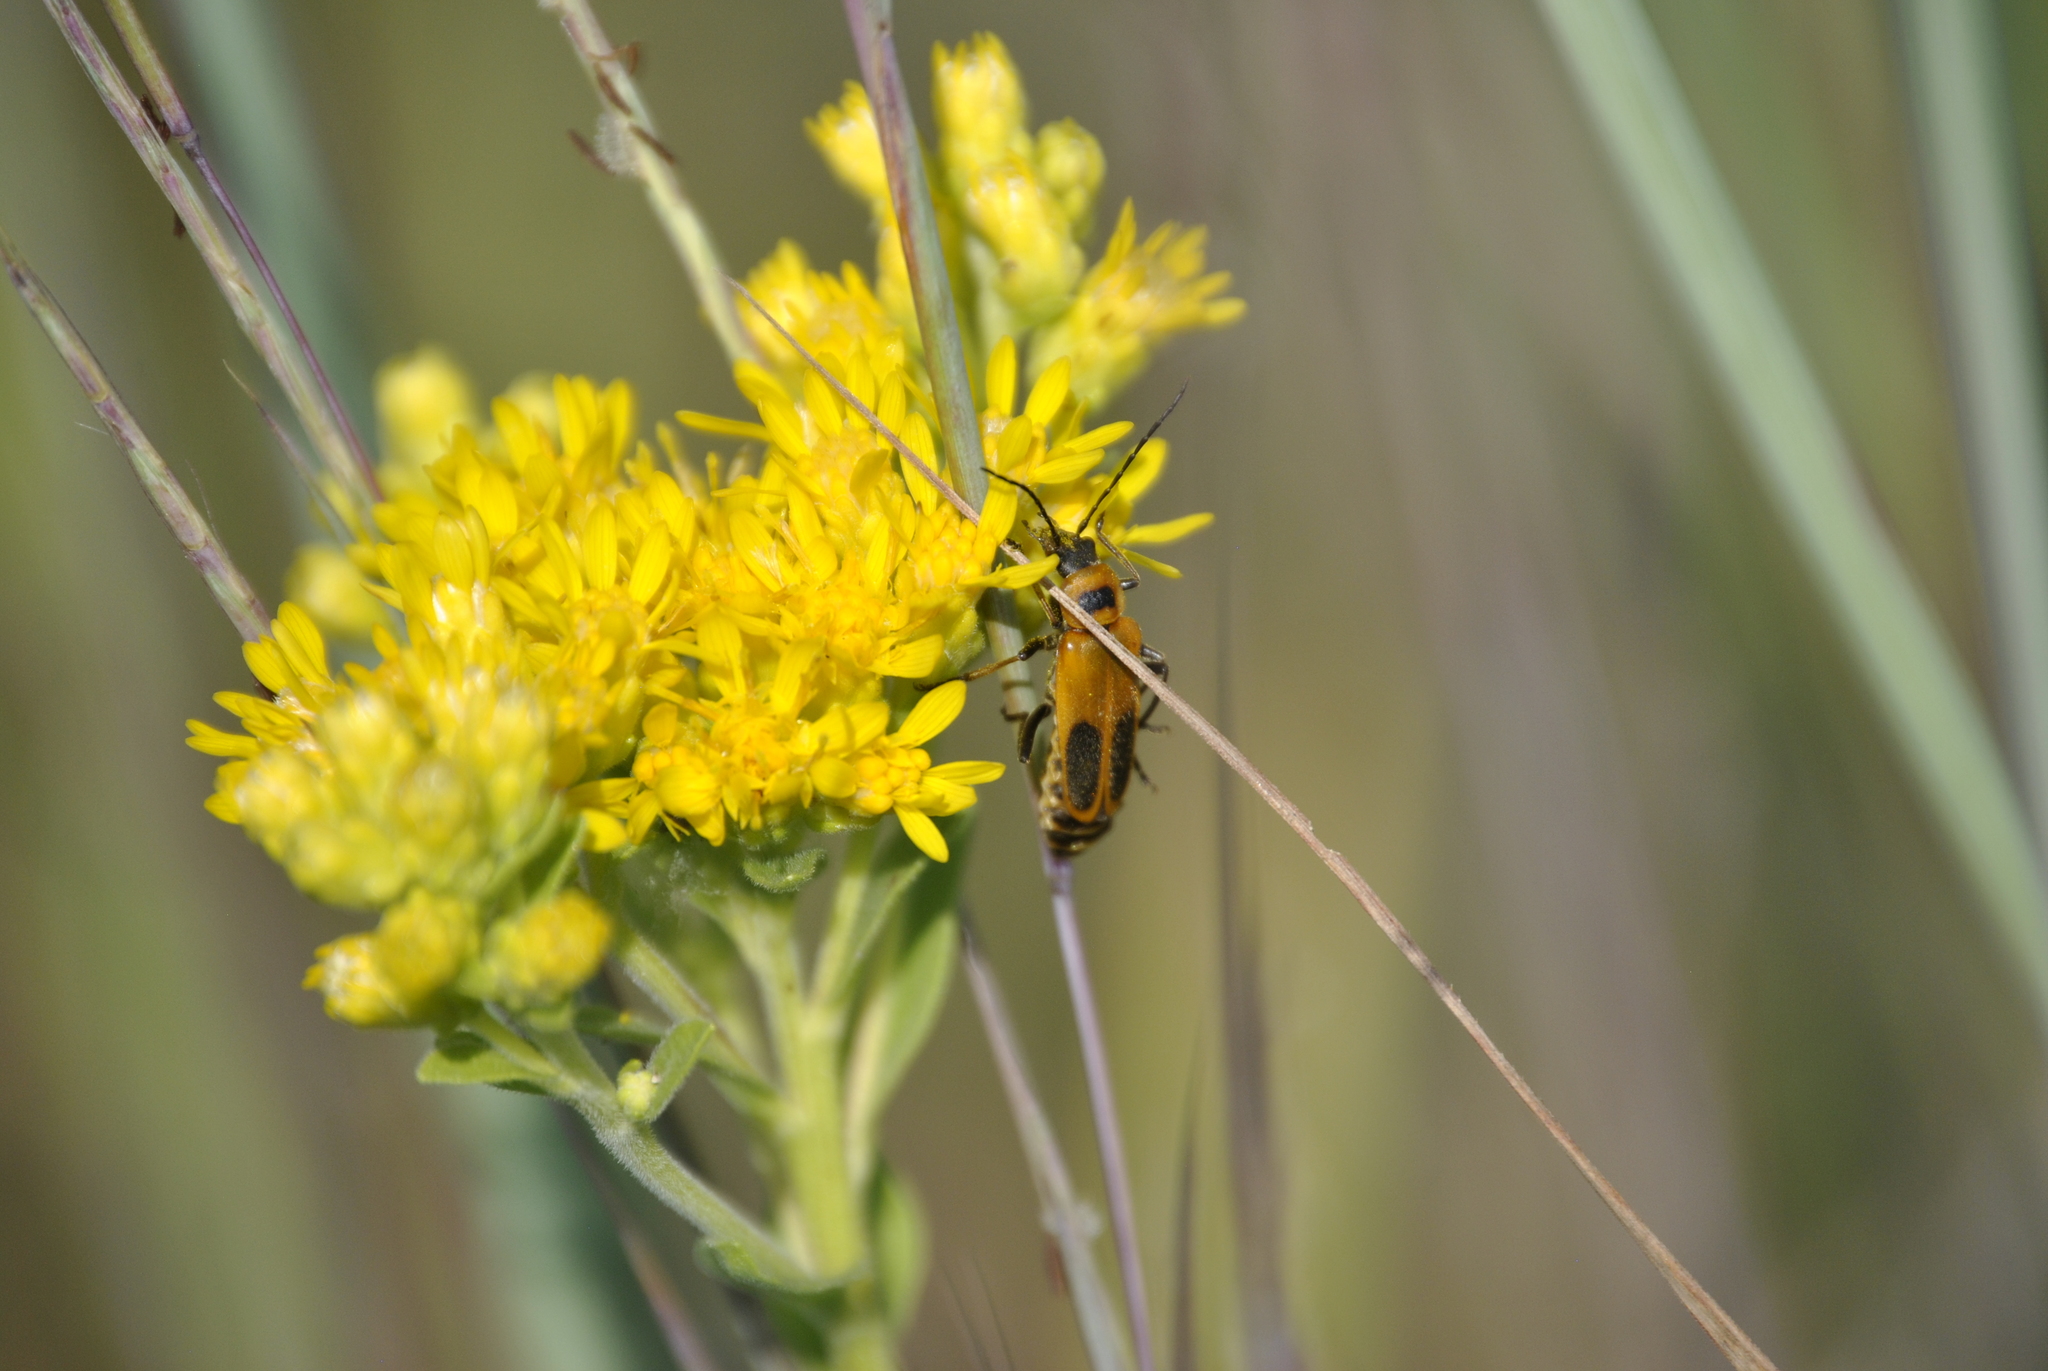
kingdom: Animalia
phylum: Arthropoda
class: Insecta
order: Coleoptera
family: Cantharidae
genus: Chauliognathus
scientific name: Chauliognathus pensylvanicus
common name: Goldenrod soldier beetle
